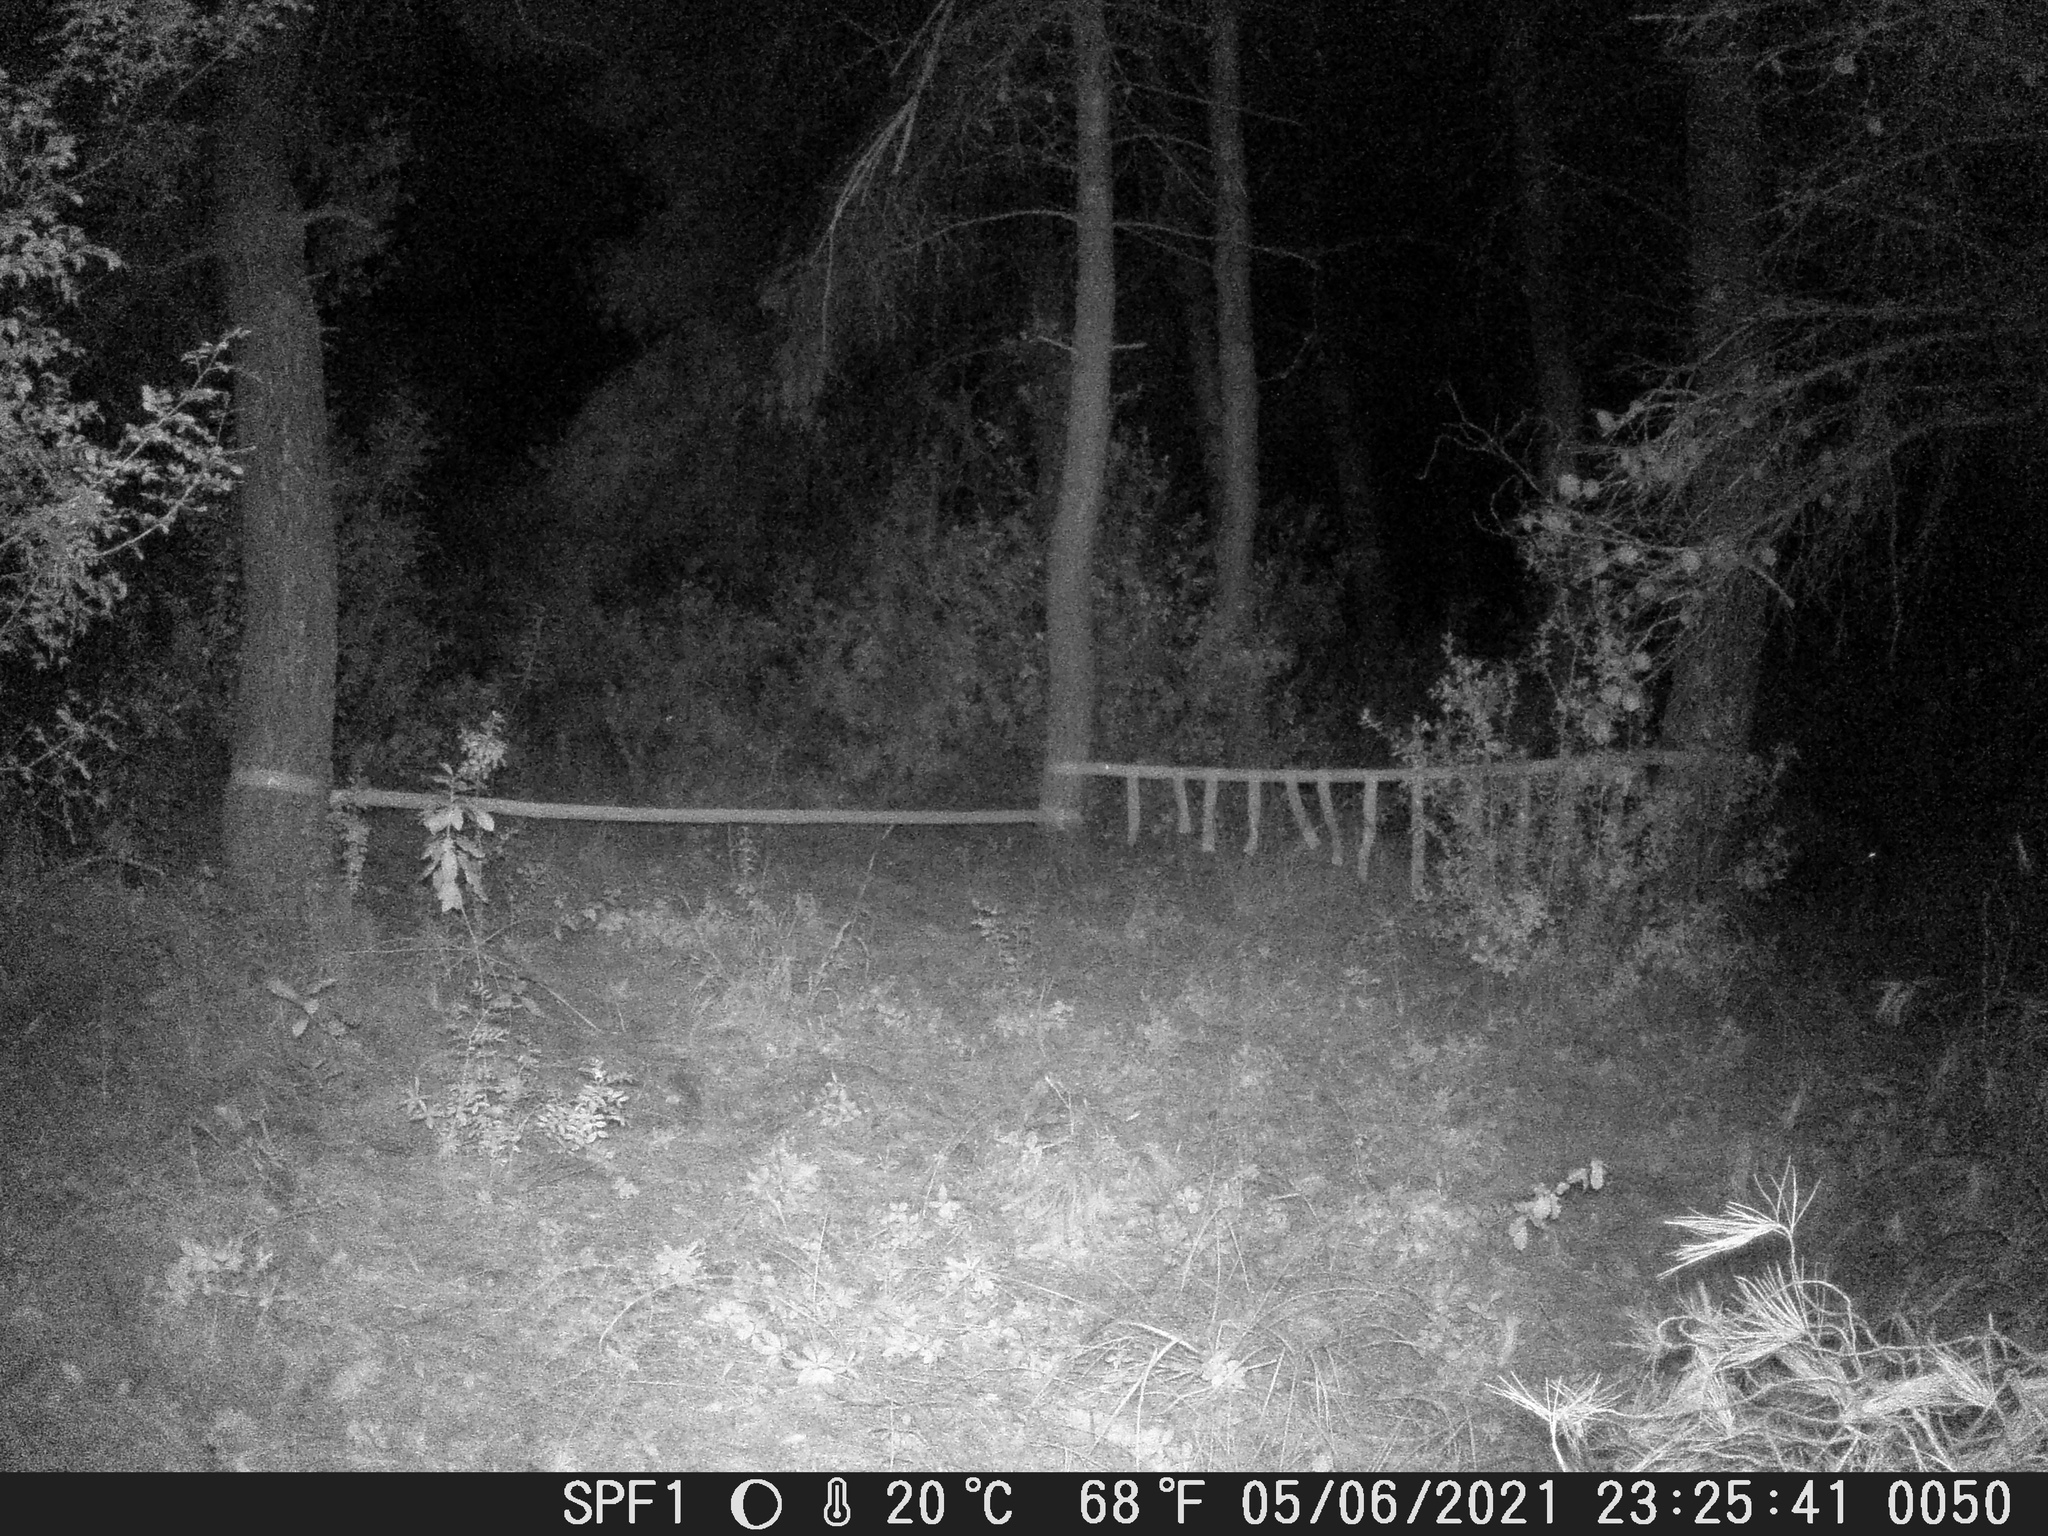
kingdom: Animalia
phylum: Chordata
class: Mammalia
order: Artiodactyla
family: Suidae
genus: Sus
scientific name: Sus scrofa
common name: Wild boar
